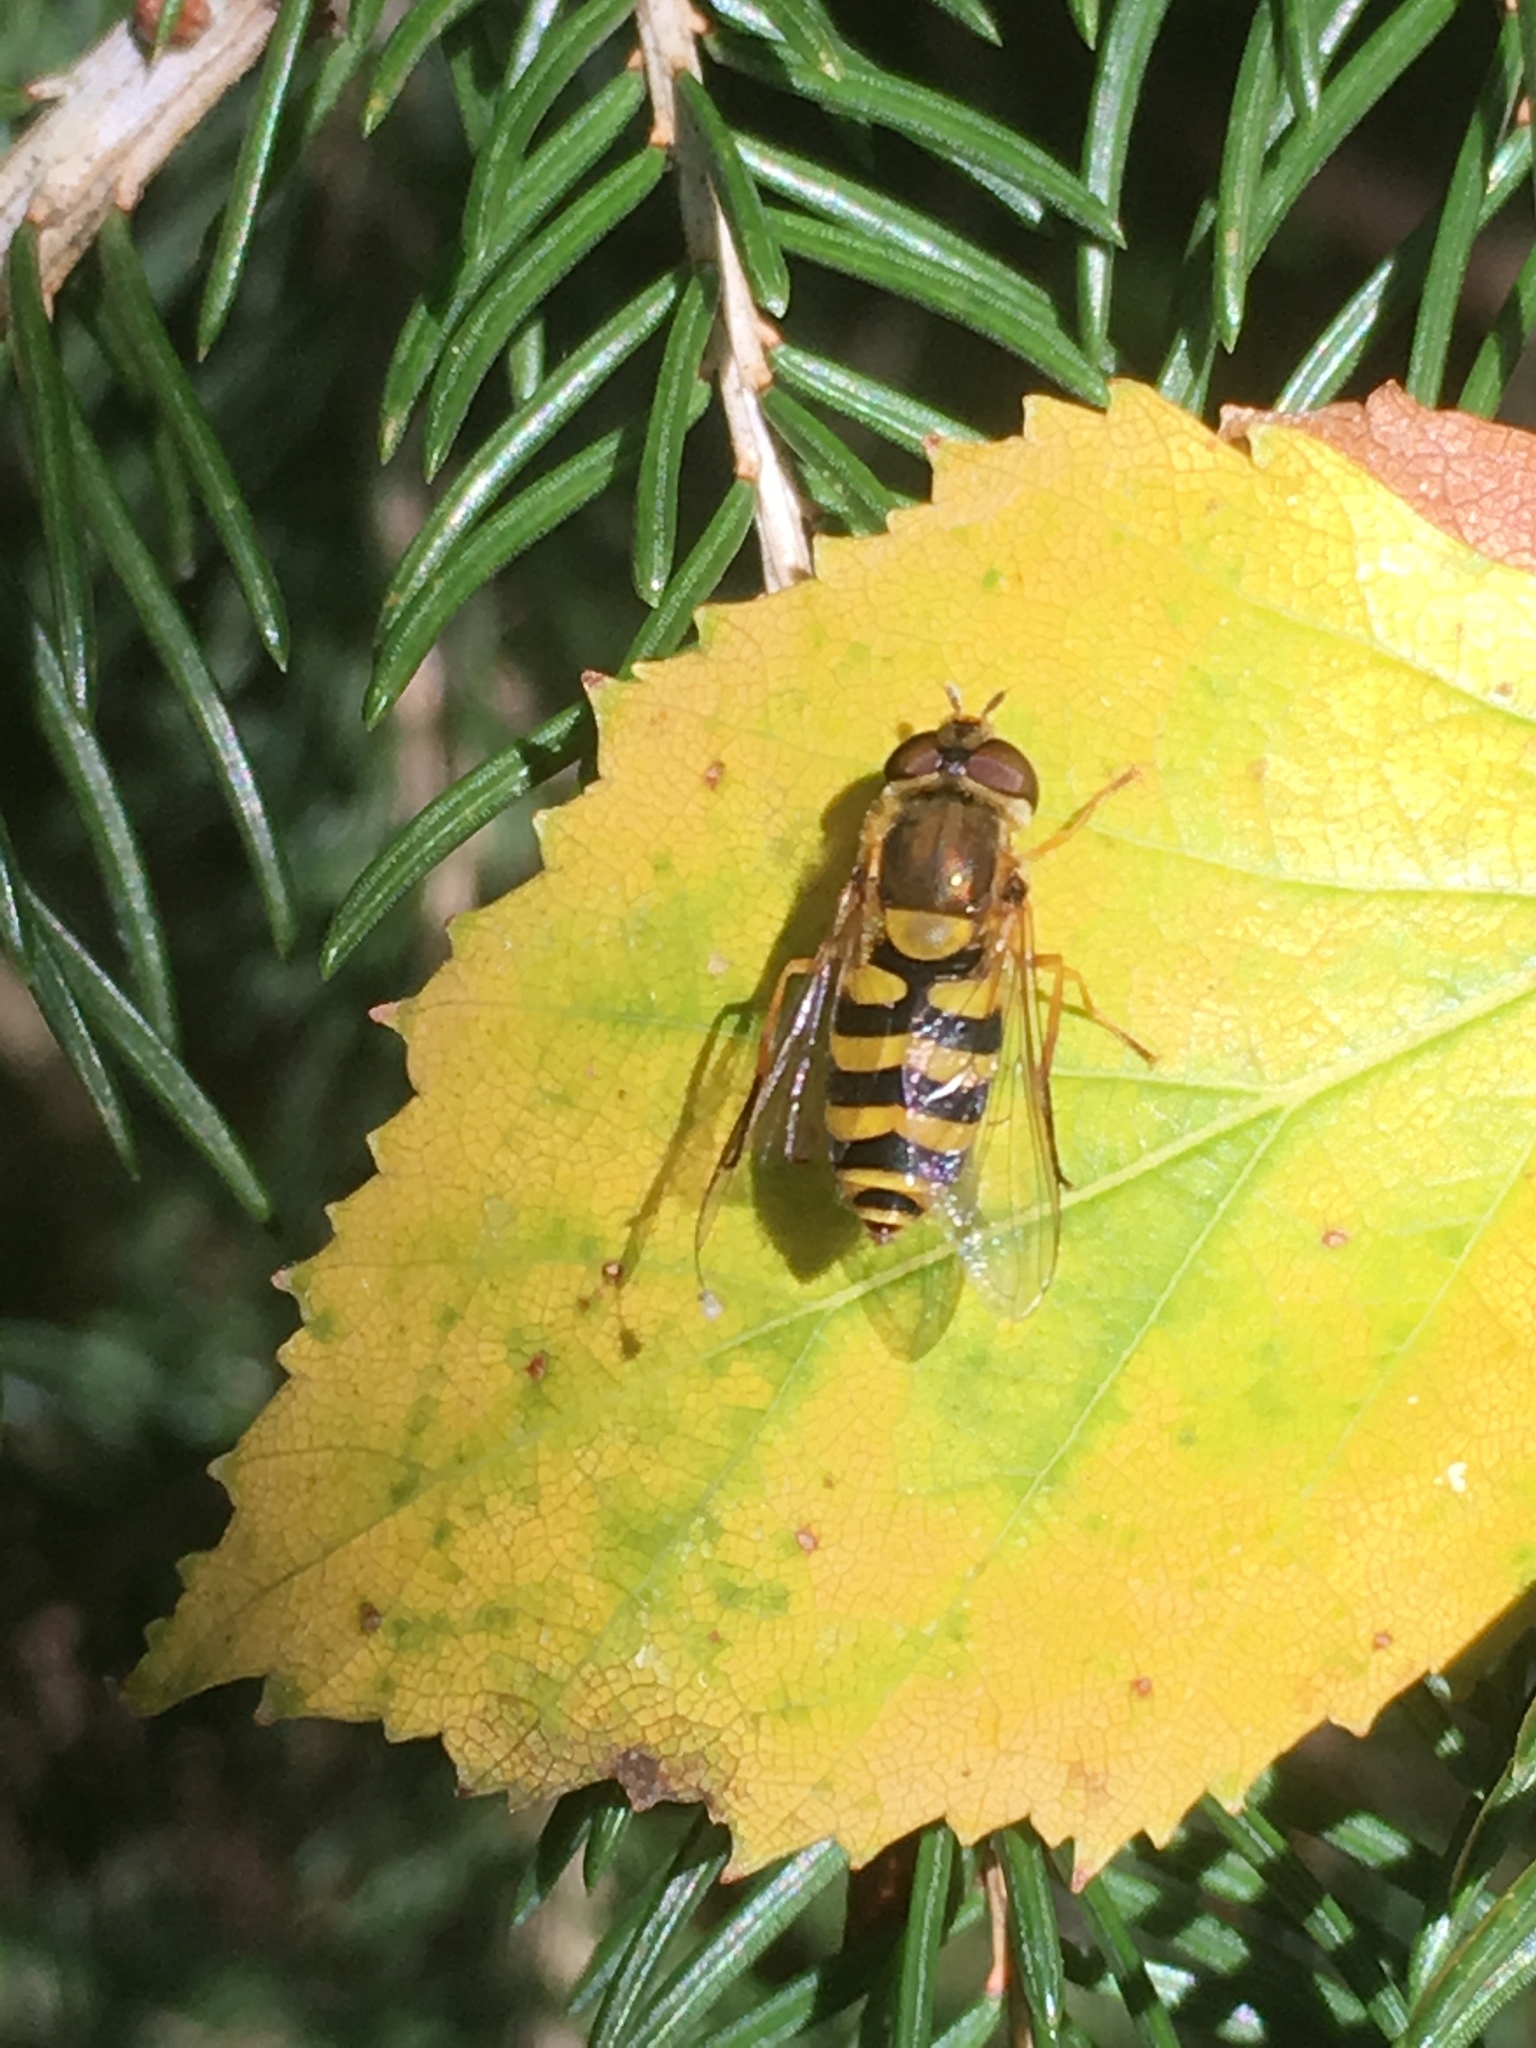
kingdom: Animalia
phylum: Arthropoda
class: Insecta
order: Diptera
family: Syrphidae
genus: Syrphus
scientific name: Syrphus
